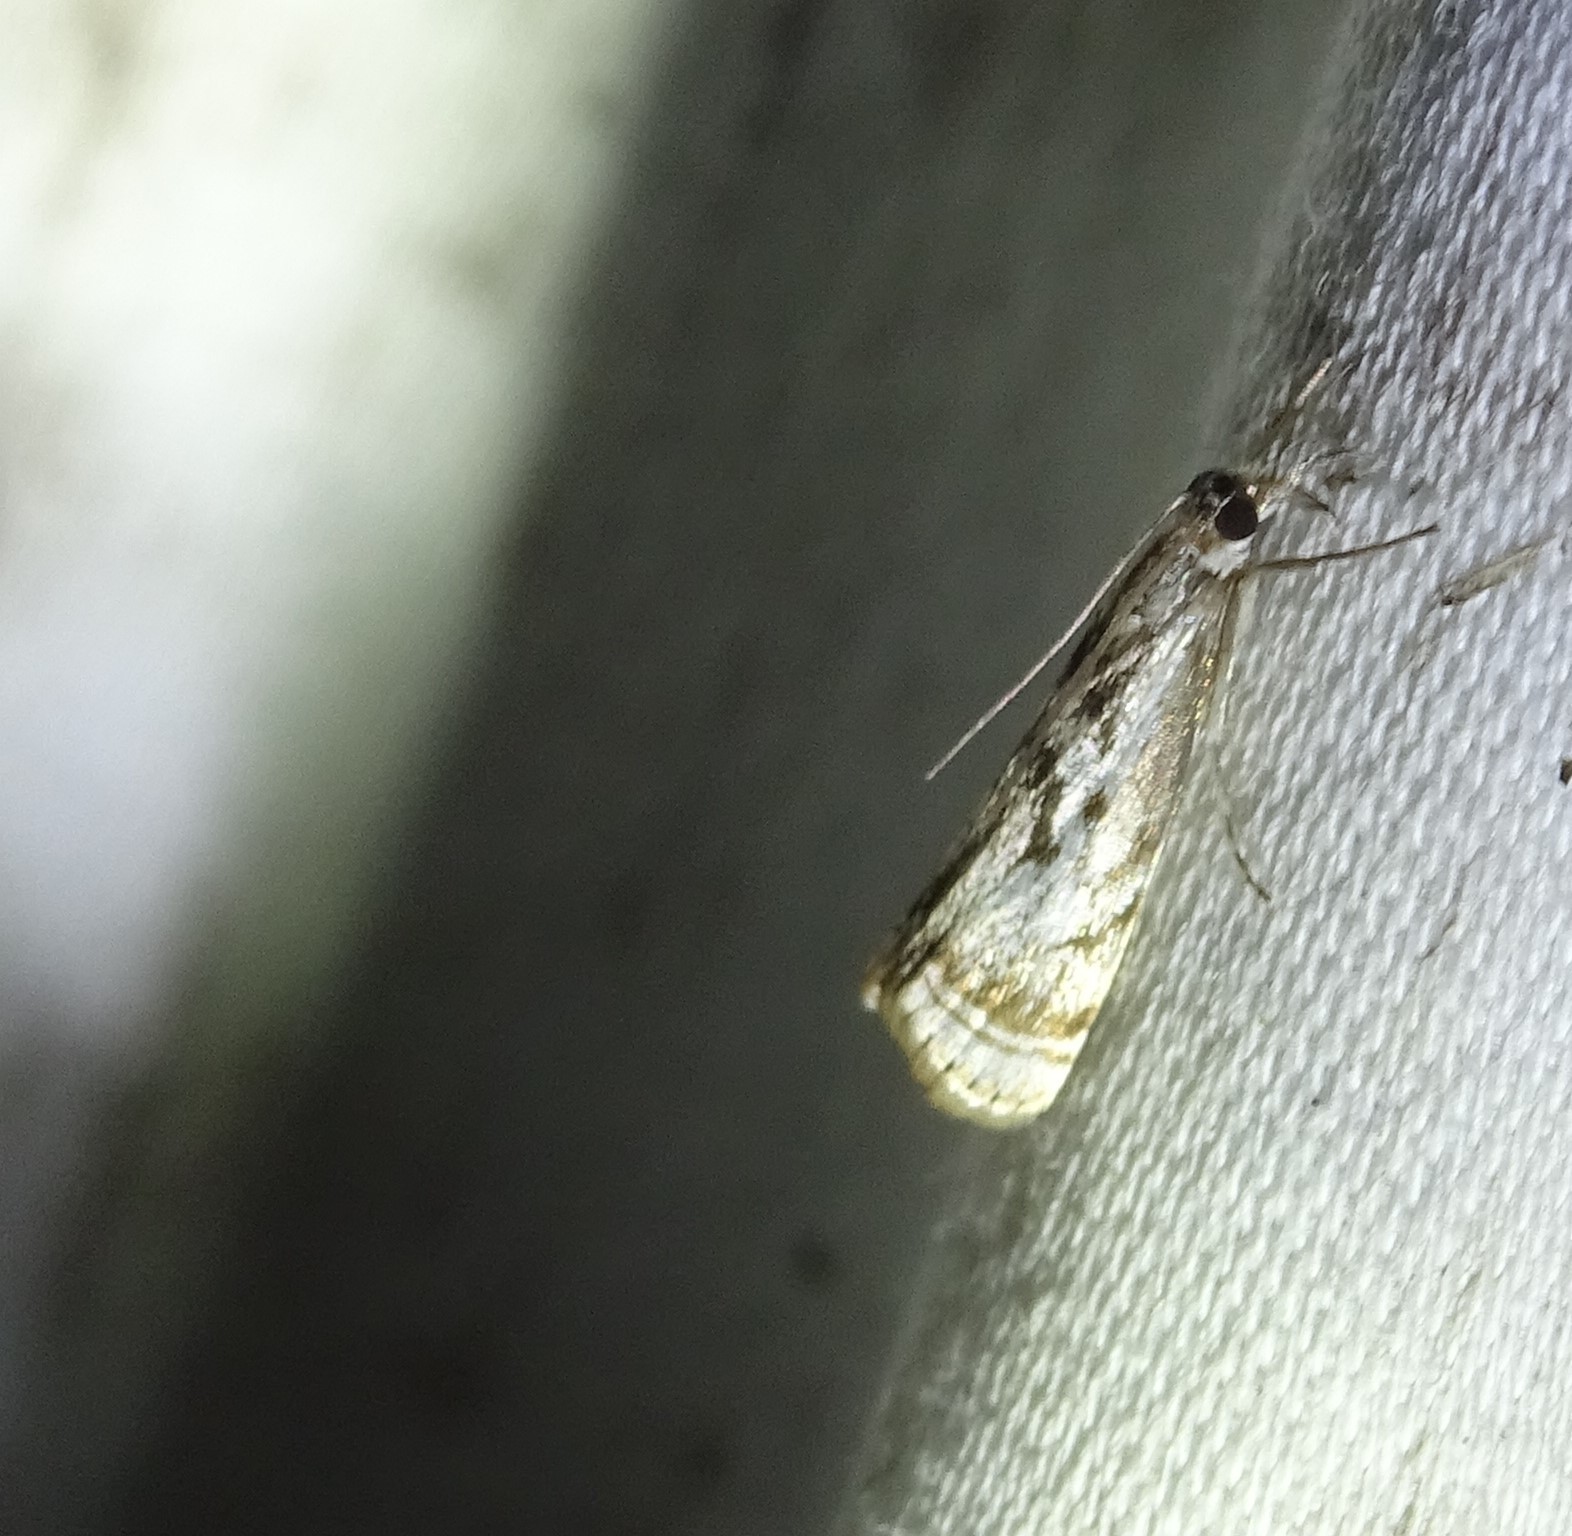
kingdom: Animalia
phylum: Arthropoda
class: Insecta
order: Lepidoptera
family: Crambidae
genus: Microcrambus
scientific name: Microcrambus elegans
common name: Elegant grass-veneer
